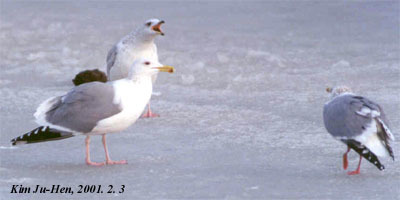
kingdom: Animalia
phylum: Chordata
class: Aves
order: Charadriiformes
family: Laridae
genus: Larus
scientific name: Larus vegae
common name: Vega gull
